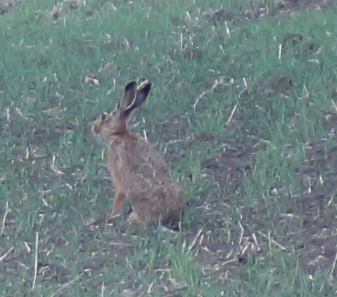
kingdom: Animalia
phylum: Chordata
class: Mammalia
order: Lagomorpha
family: Leporidae
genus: Lepus
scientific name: Lepus europaeus
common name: European hare
